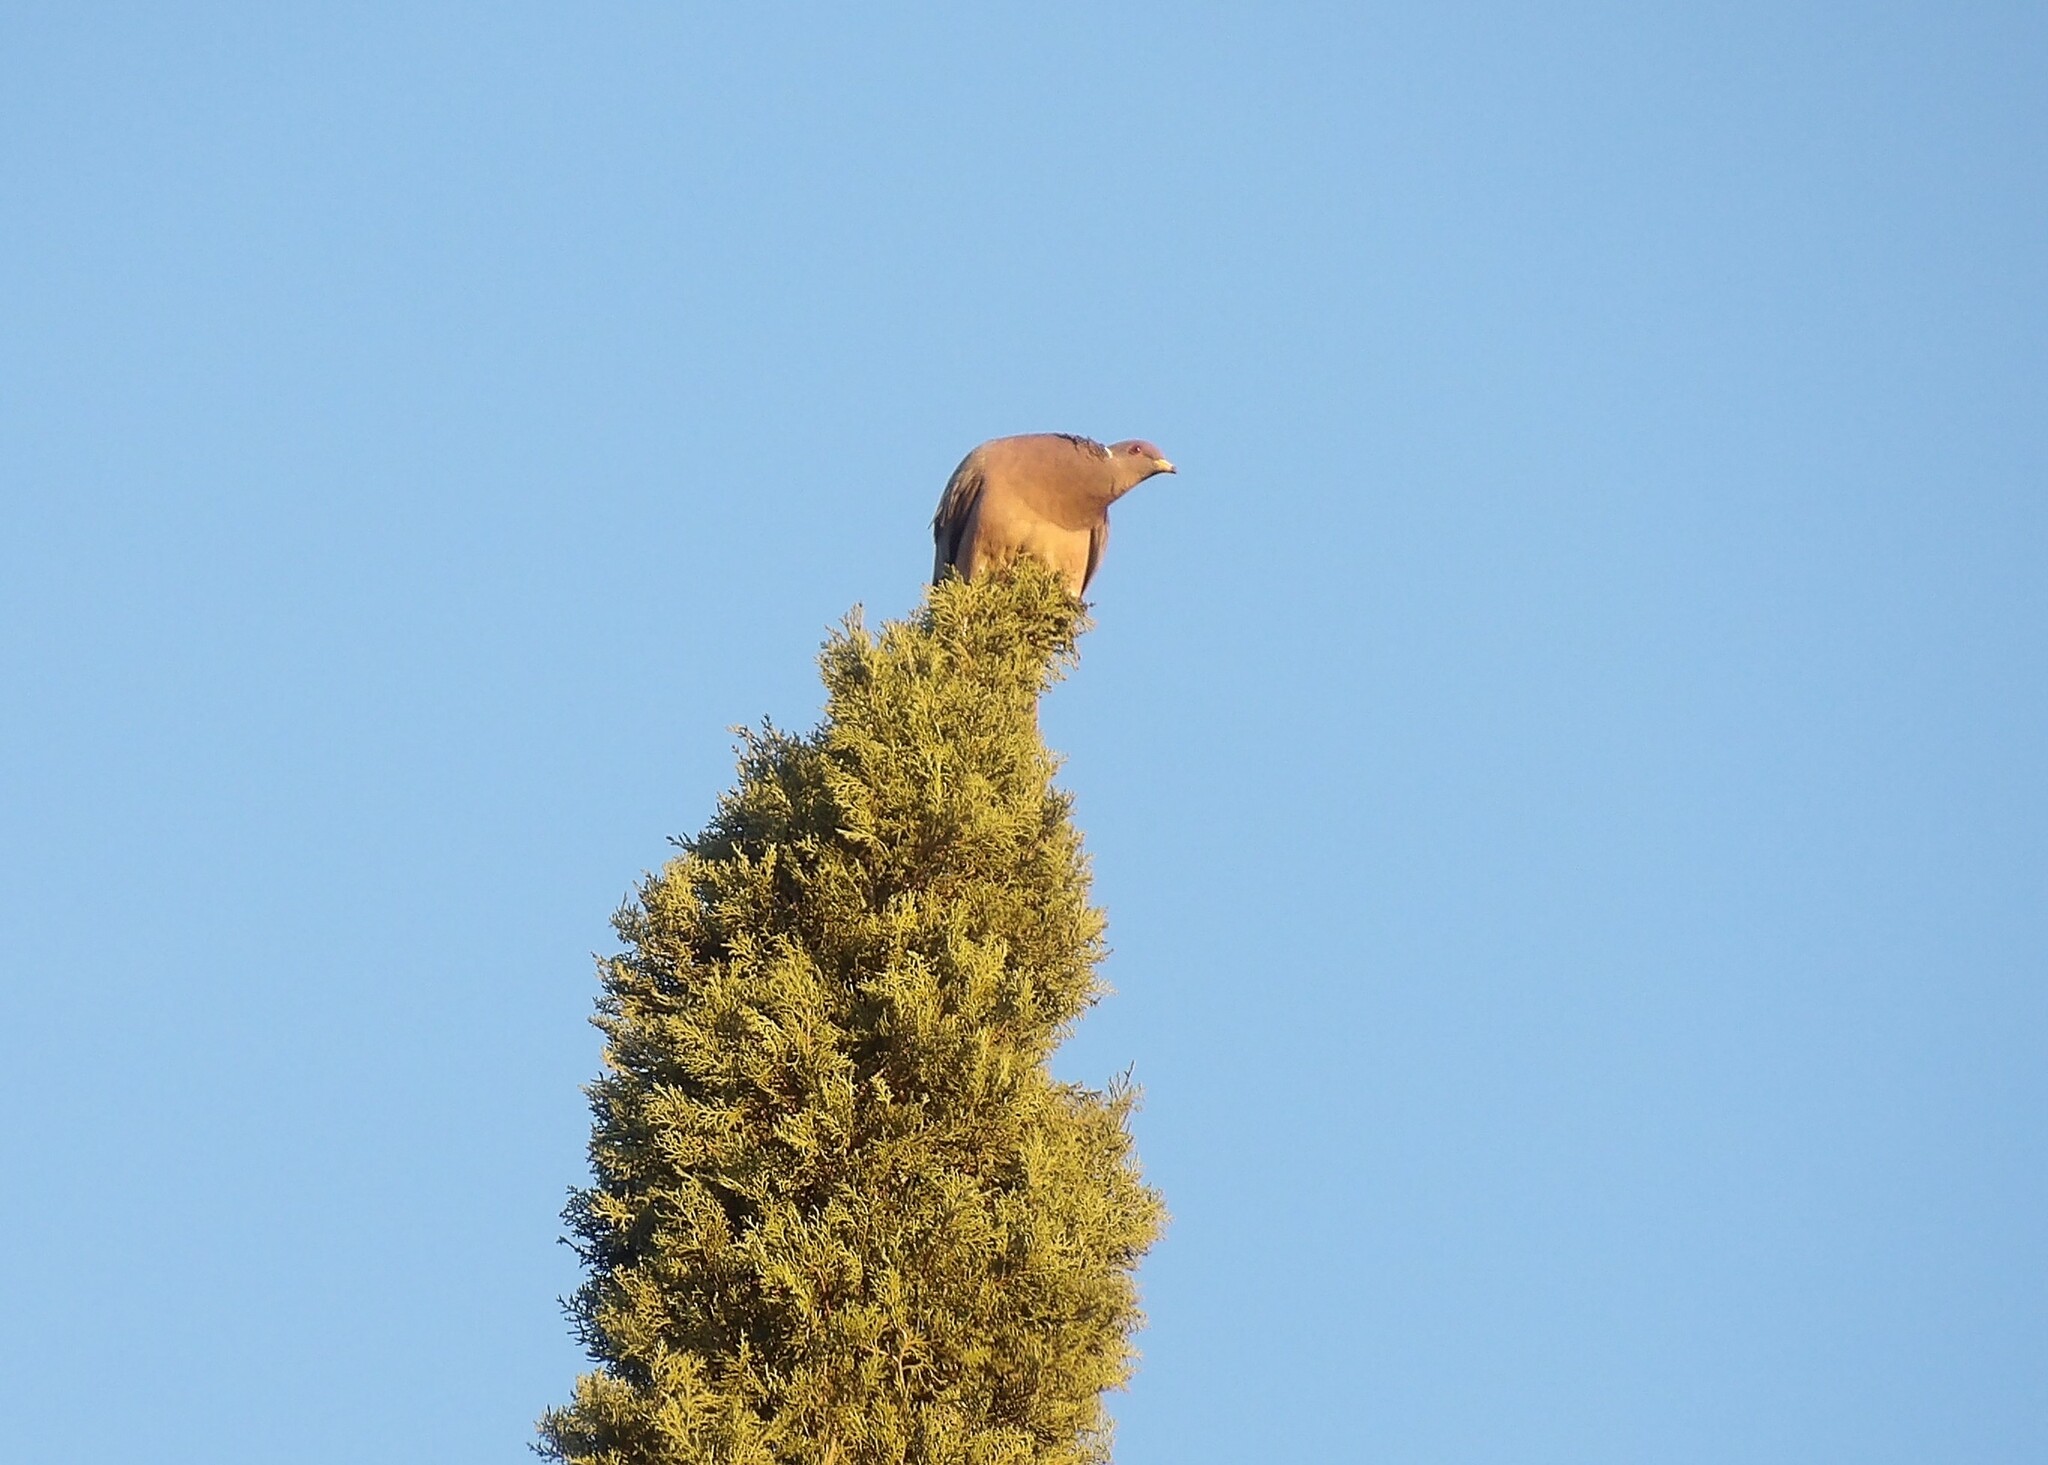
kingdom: Animalia
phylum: Chordata
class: Aves
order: Columbiformes
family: Columbidae
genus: Patagioenas
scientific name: Patagioenas fasciata
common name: Band-tailed pigeon
